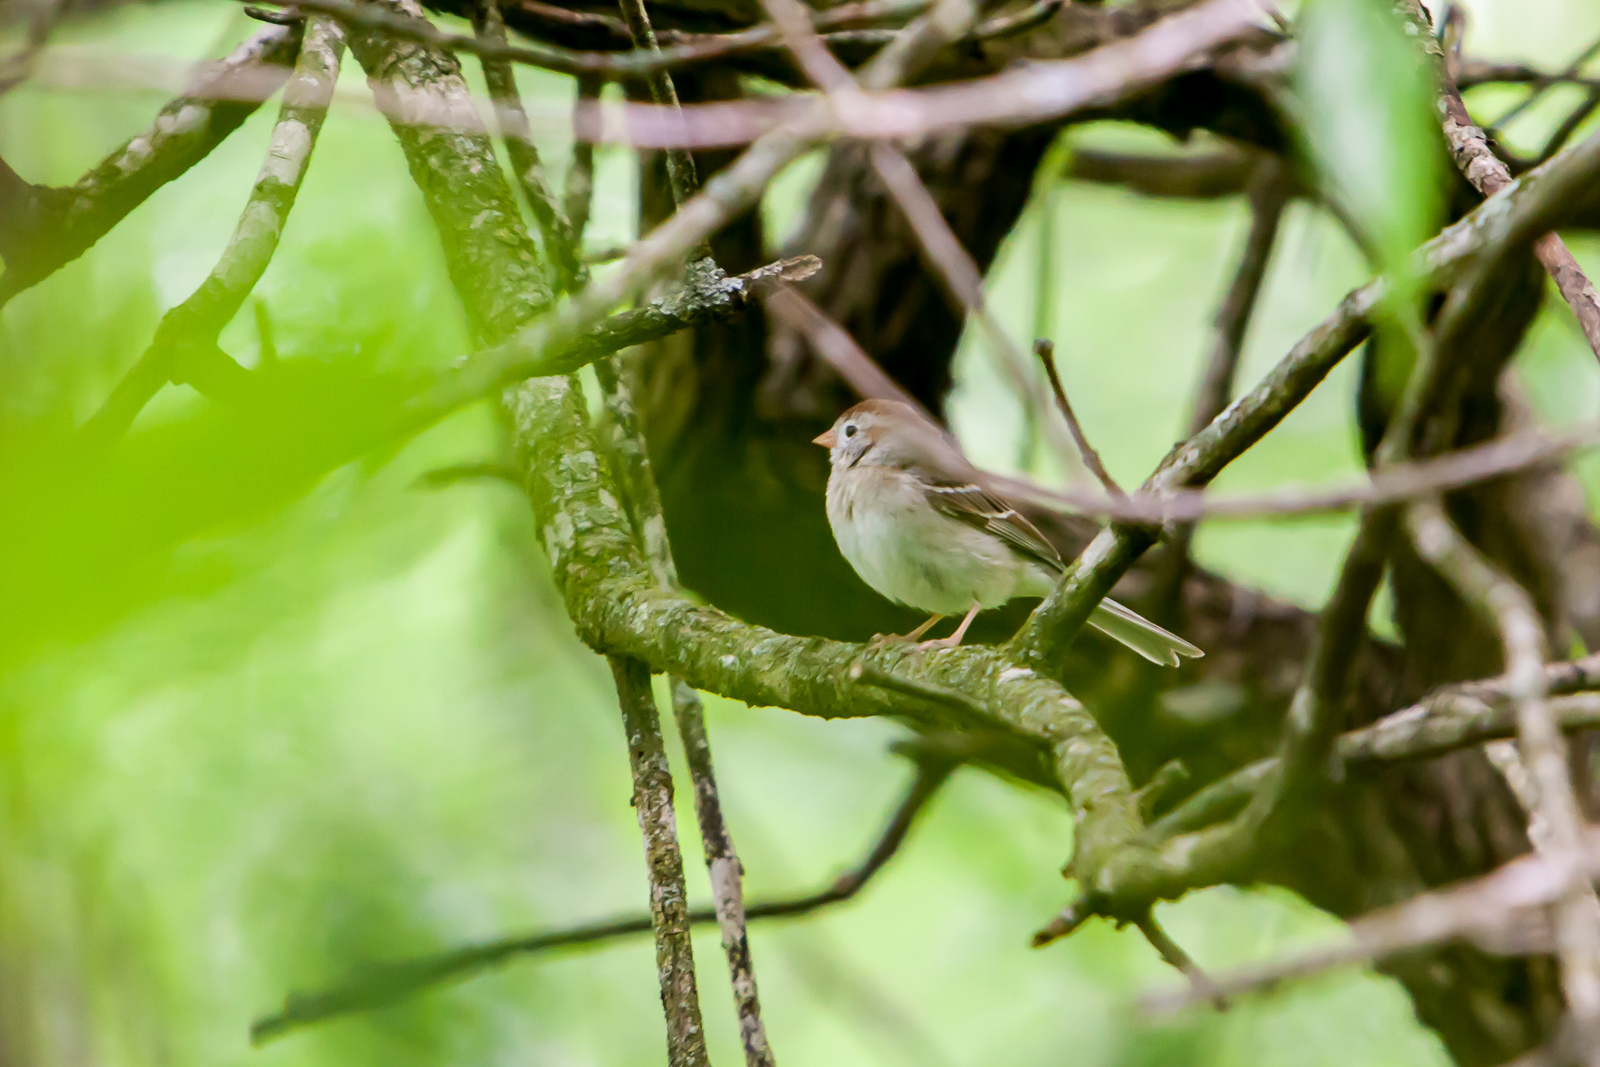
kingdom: Animalia
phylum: Chordata
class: Aves
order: Passeriformes
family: Passerellidae
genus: Spizella
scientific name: Spizella pusilla
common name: Field sparrow
